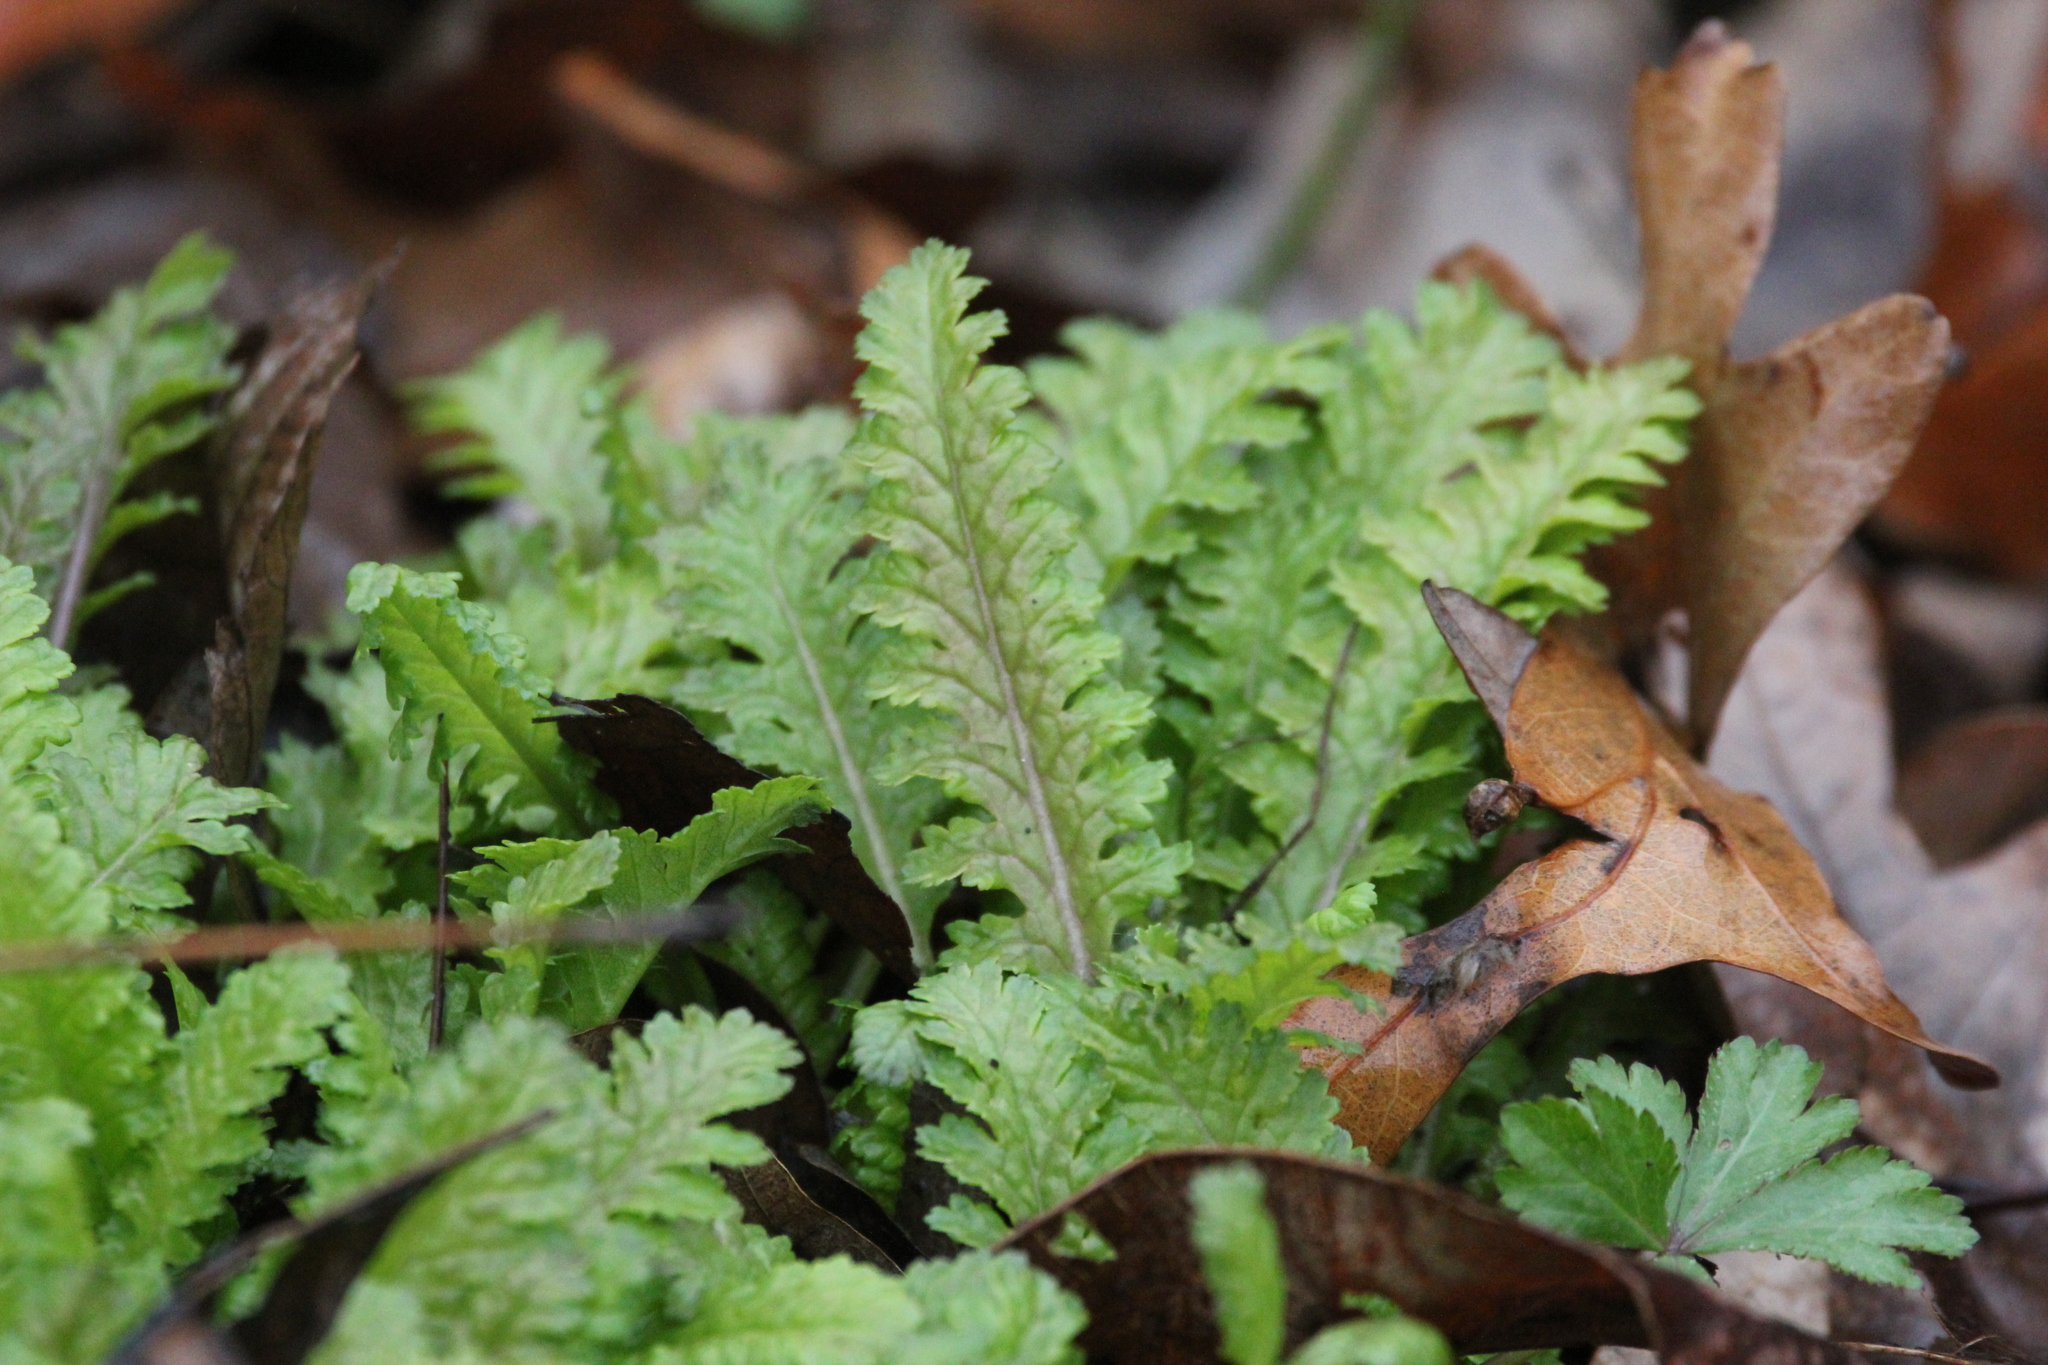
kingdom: Plantae
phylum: Tracheophyta
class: Magnoliopsida
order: Lamiales
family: Orobanchaceae
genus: Pedicularis
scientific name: Pedicularis canadensis
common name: Early lousewort
